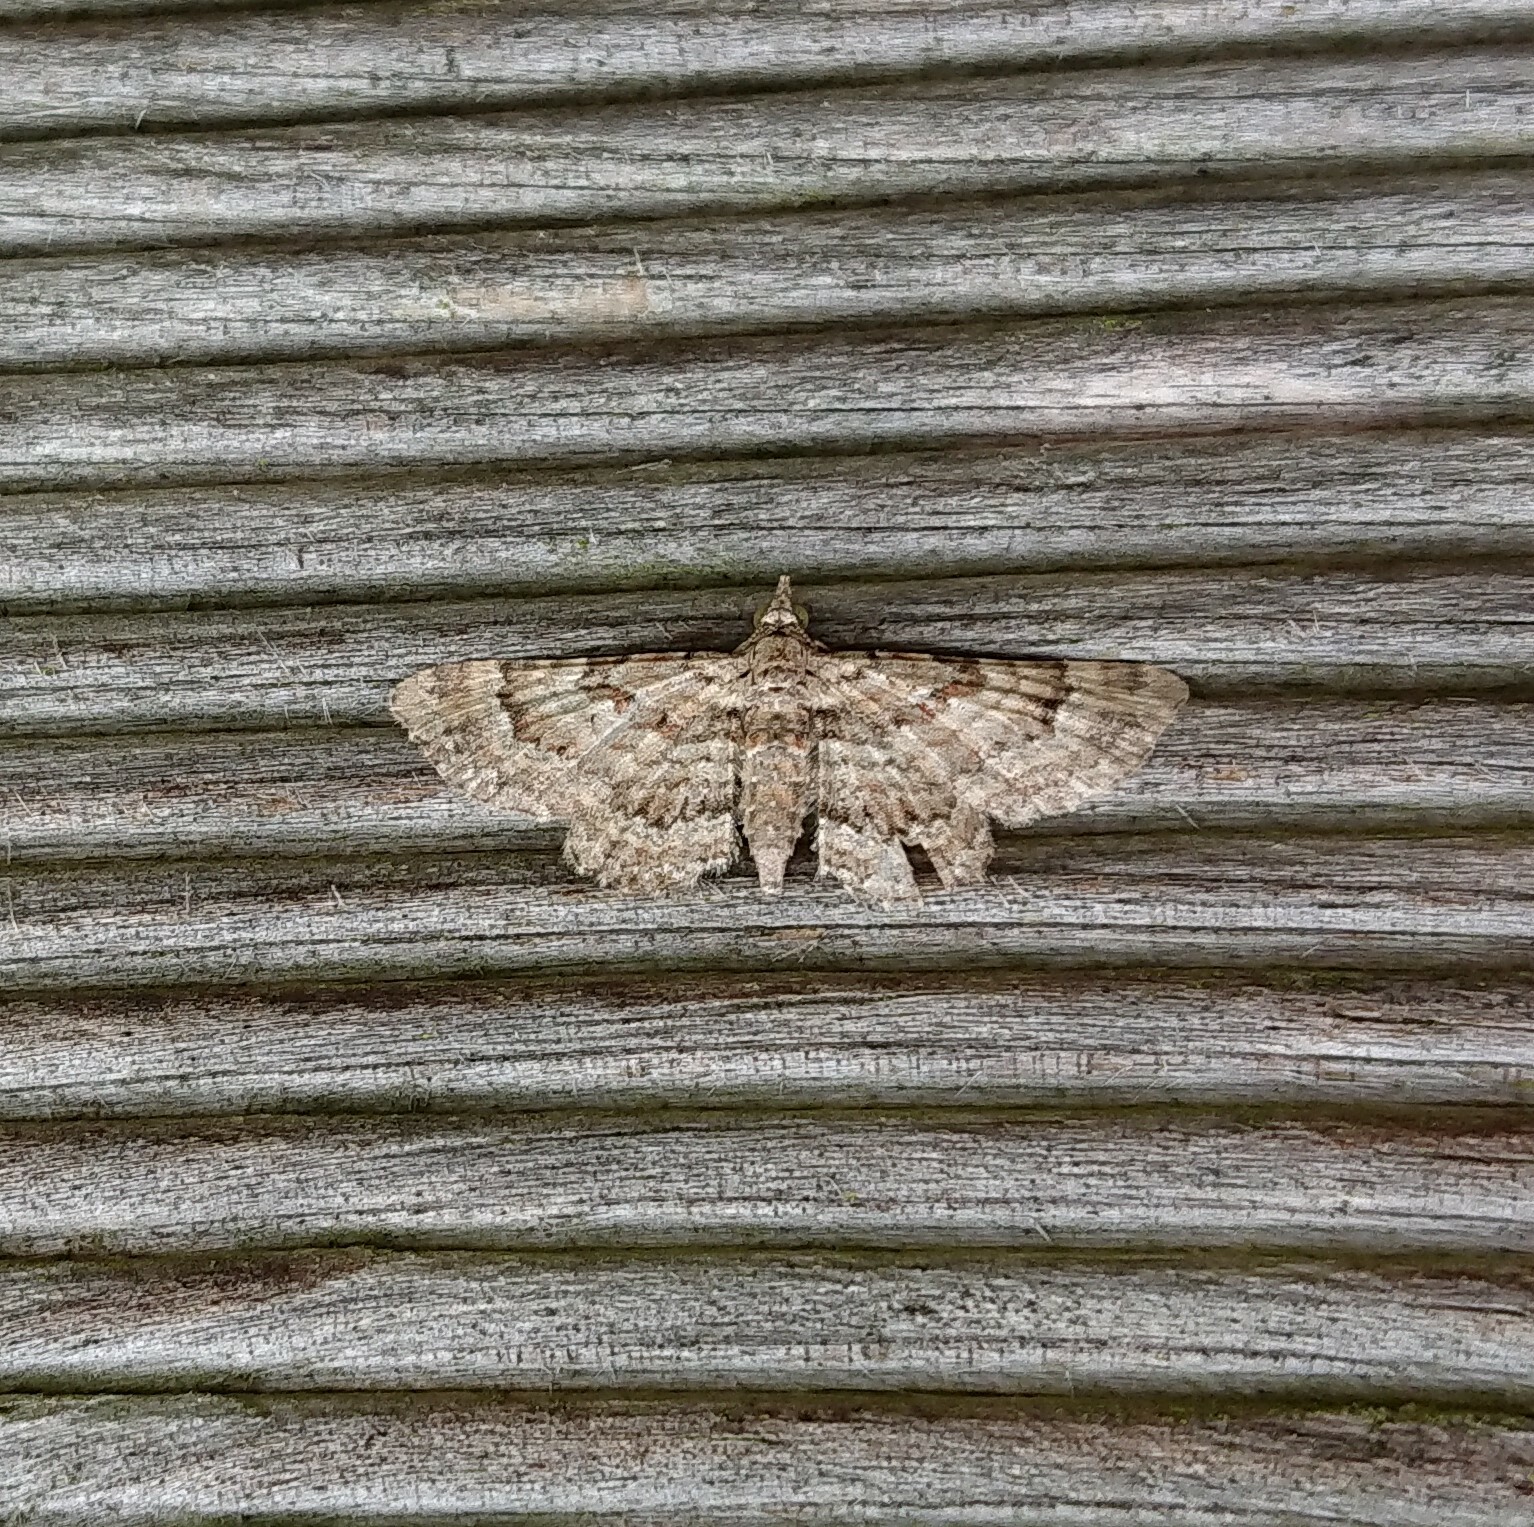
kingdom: Animalia
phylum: Arthropoda
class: Insecta
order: Lepidoptera
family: Geometridae
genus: Gymnoscelis
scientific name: Gymnoscelis rufifasciata
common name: Double-striped pug
